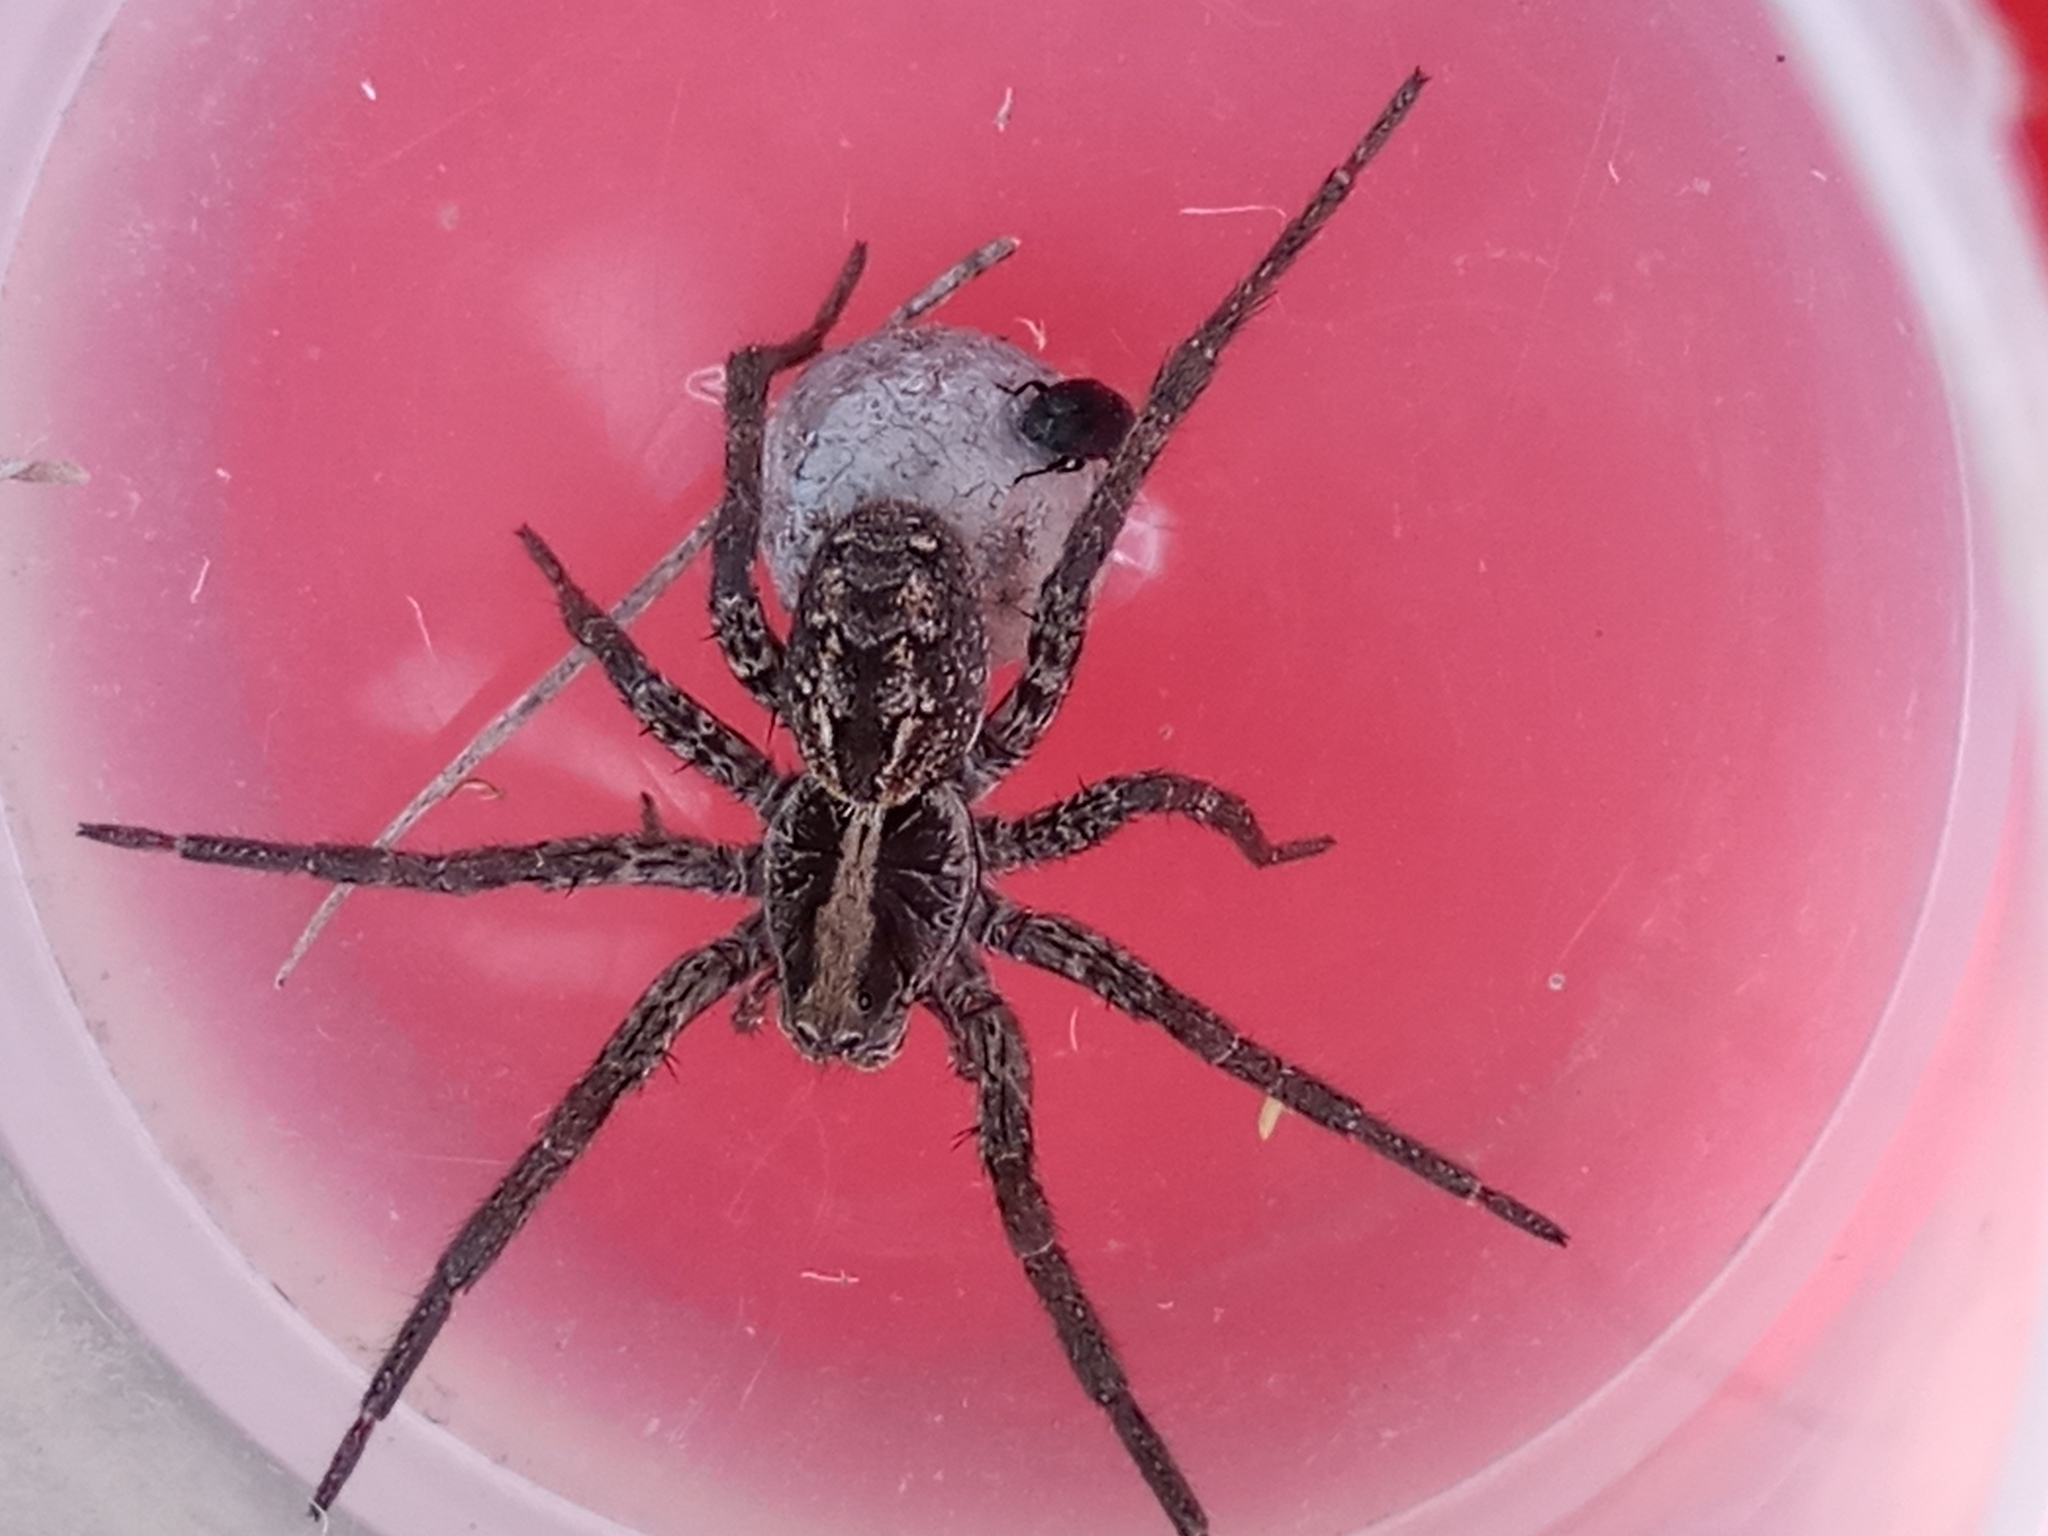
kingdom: Animalia
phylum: Arthropoda
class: Arachnida
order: Araneae
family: Lycosidae
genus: Schizocosa
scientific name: Schizocosa malitiosa
